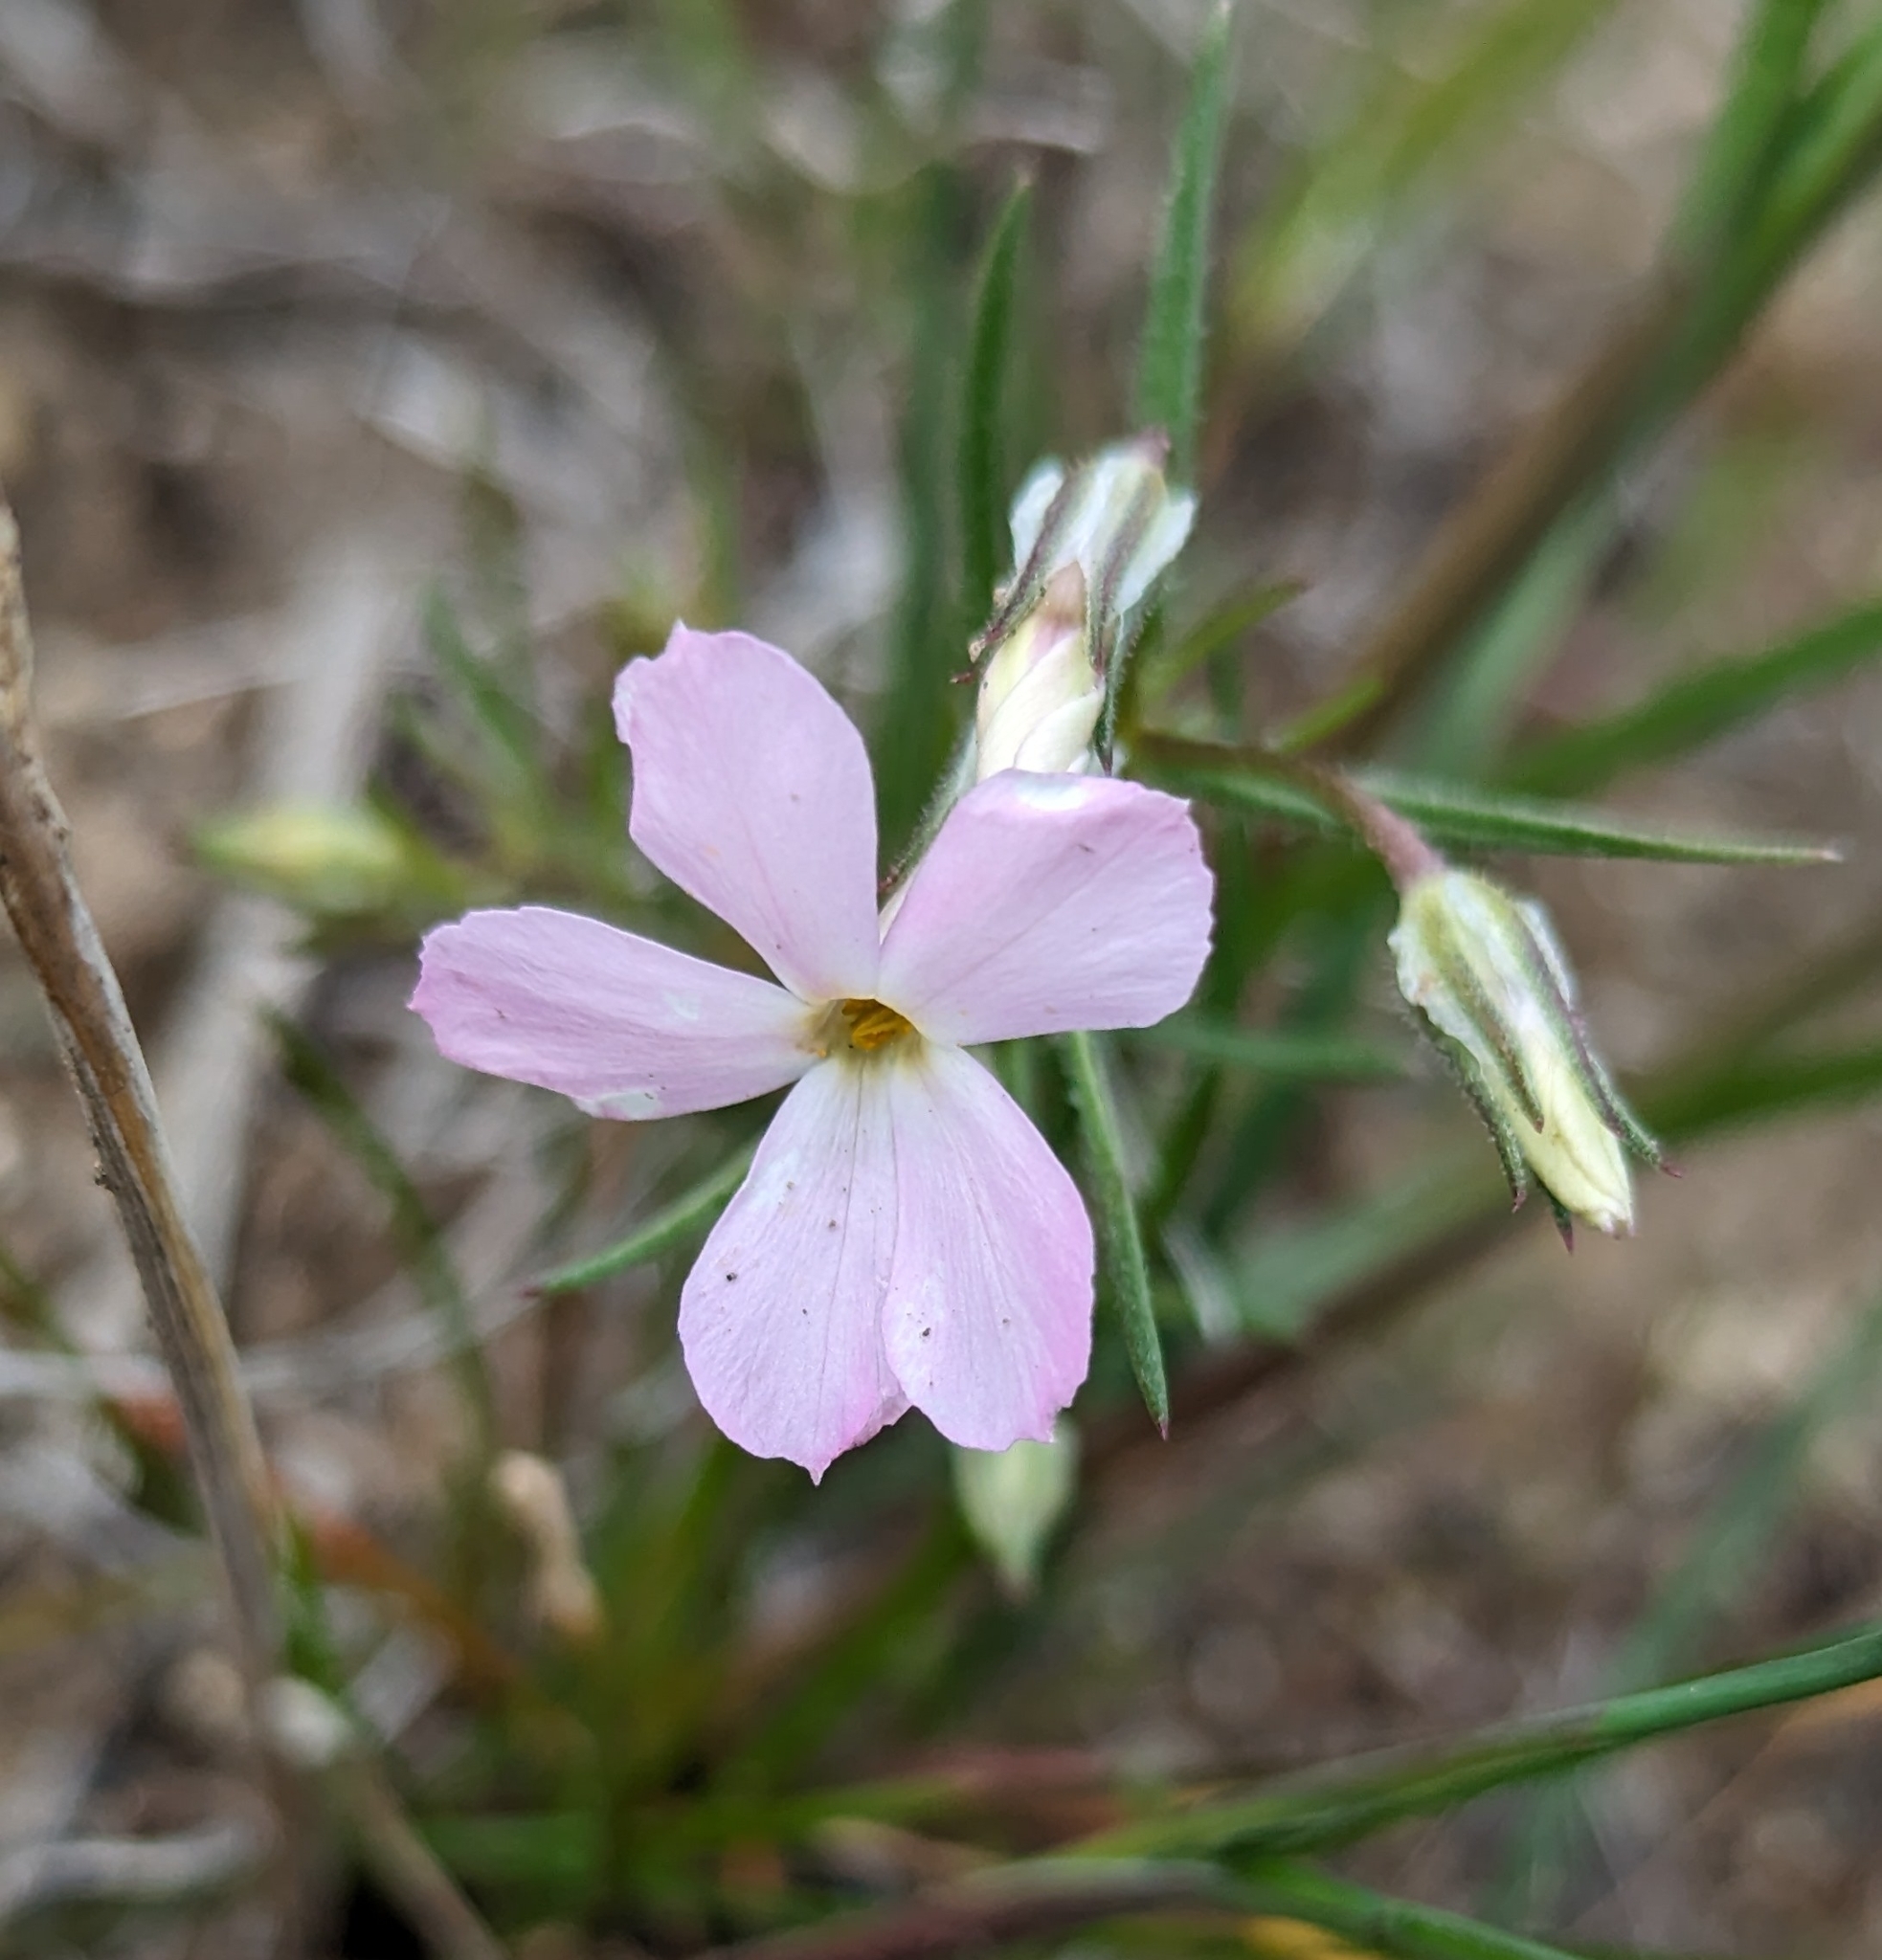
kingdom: Plantae
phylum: Tracheophyta
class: Magnoliopsida
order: Ericales
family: Polemoniaceae
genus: Phlox
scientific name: Phlox longifolia
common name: Longleaf phlox
